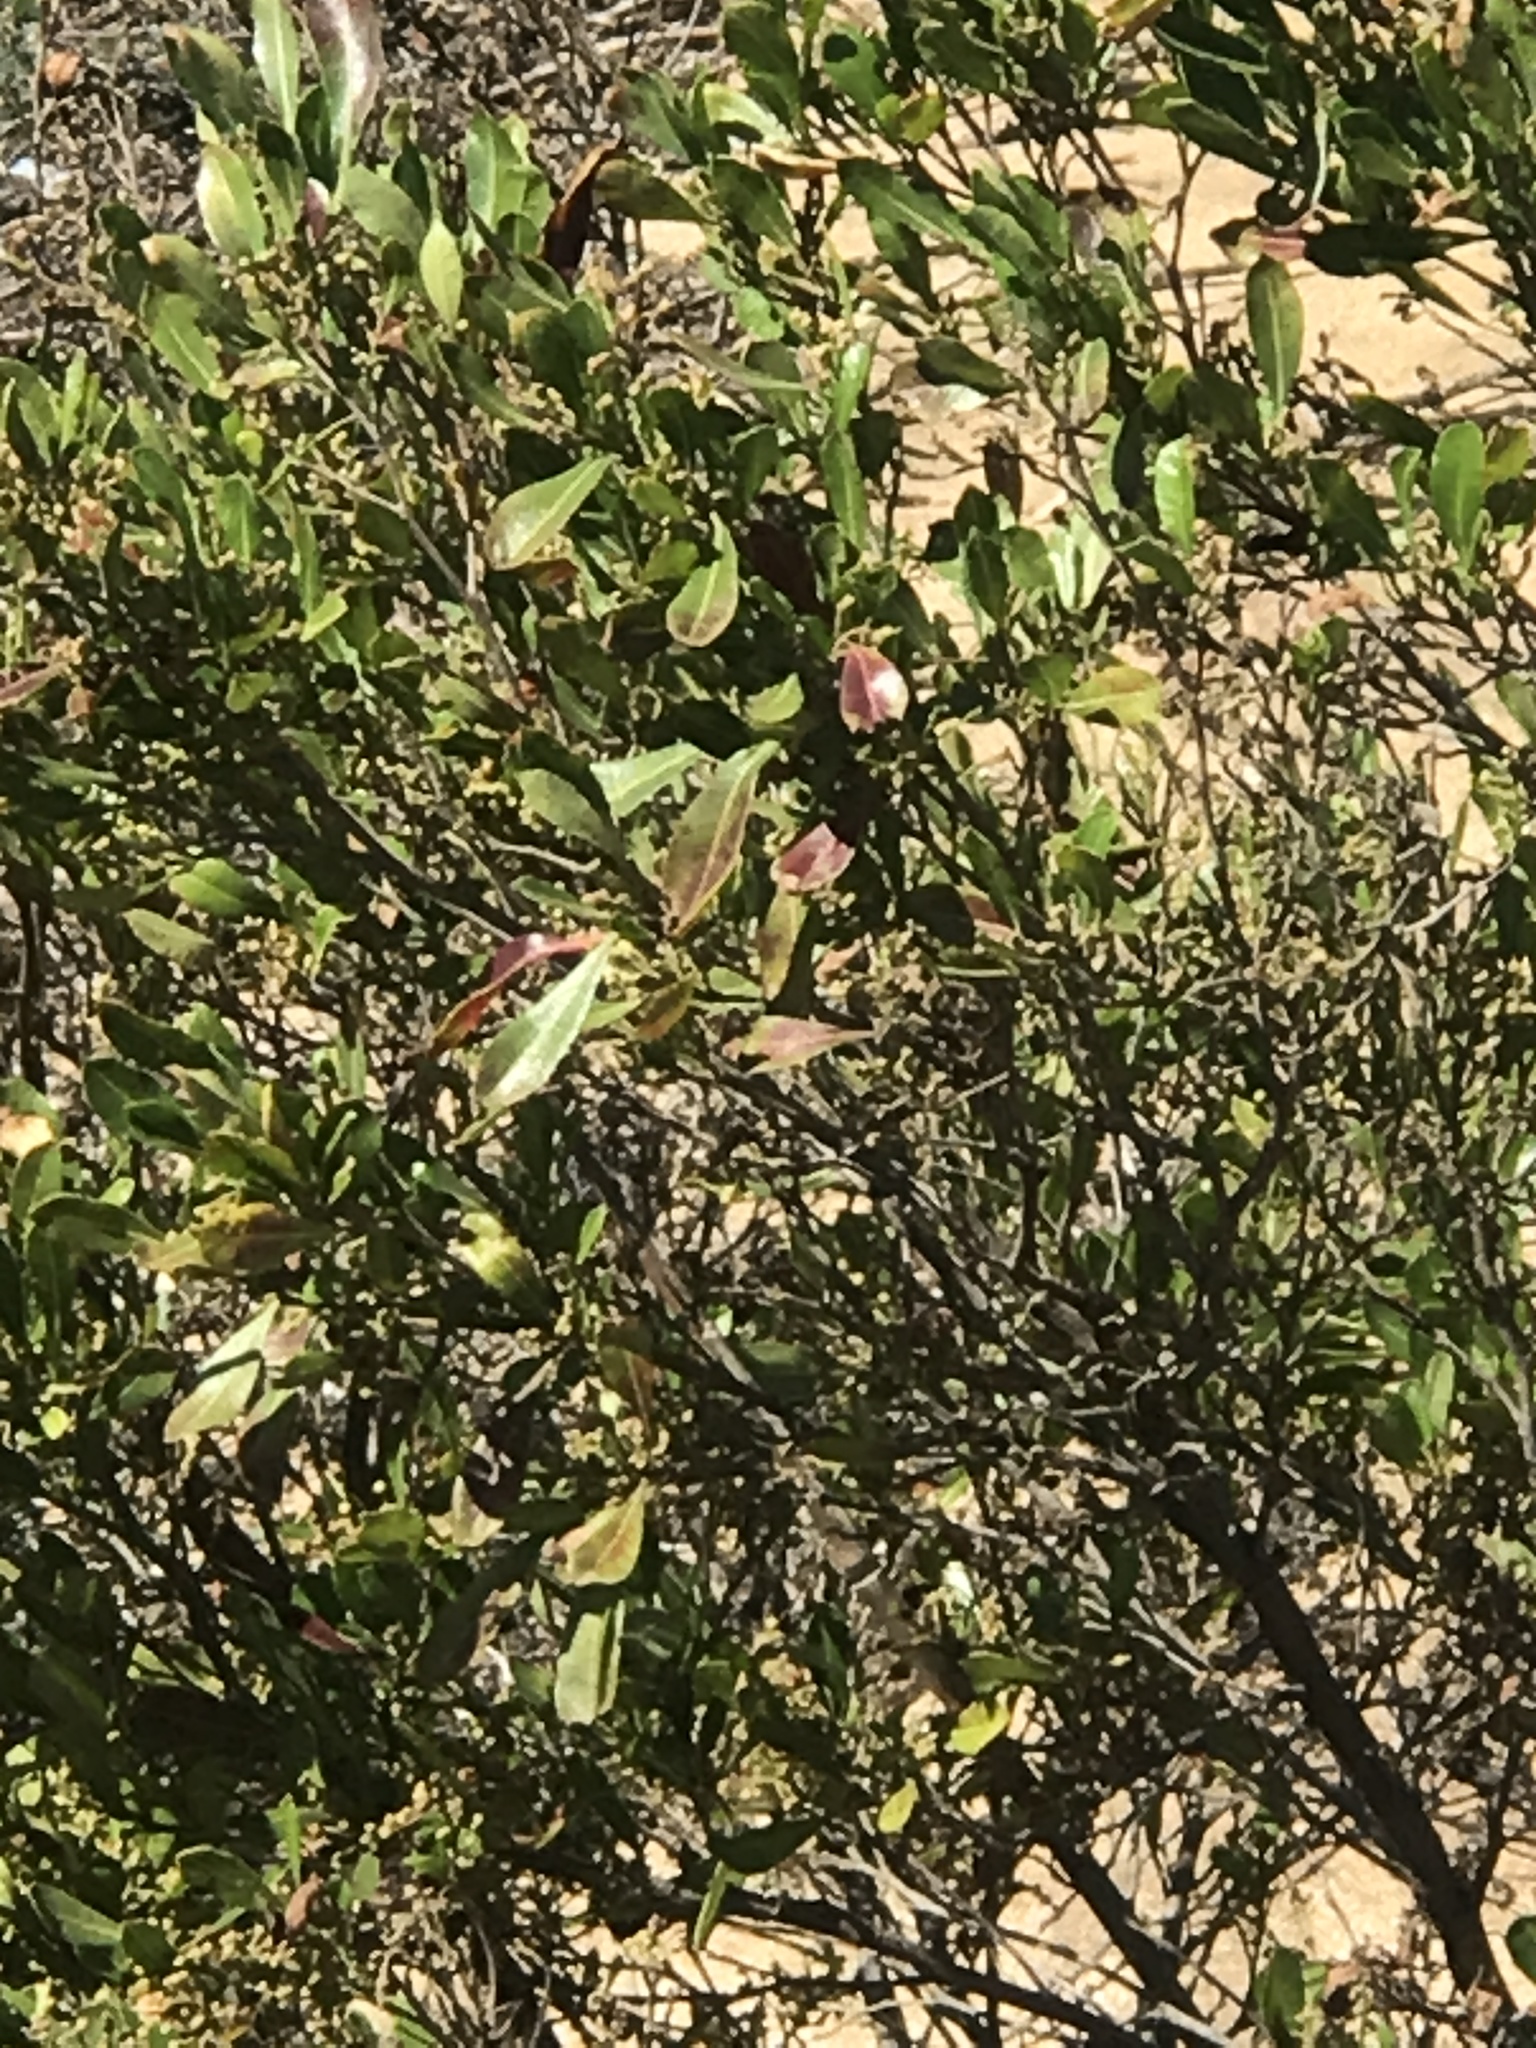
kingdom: Plantae
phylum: Tracheophyta
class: Magnoliopsida
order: Sapindales
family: Sapindaceae
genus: Dodonaea
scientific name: Dodonaea viscosa
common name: Hopbush
